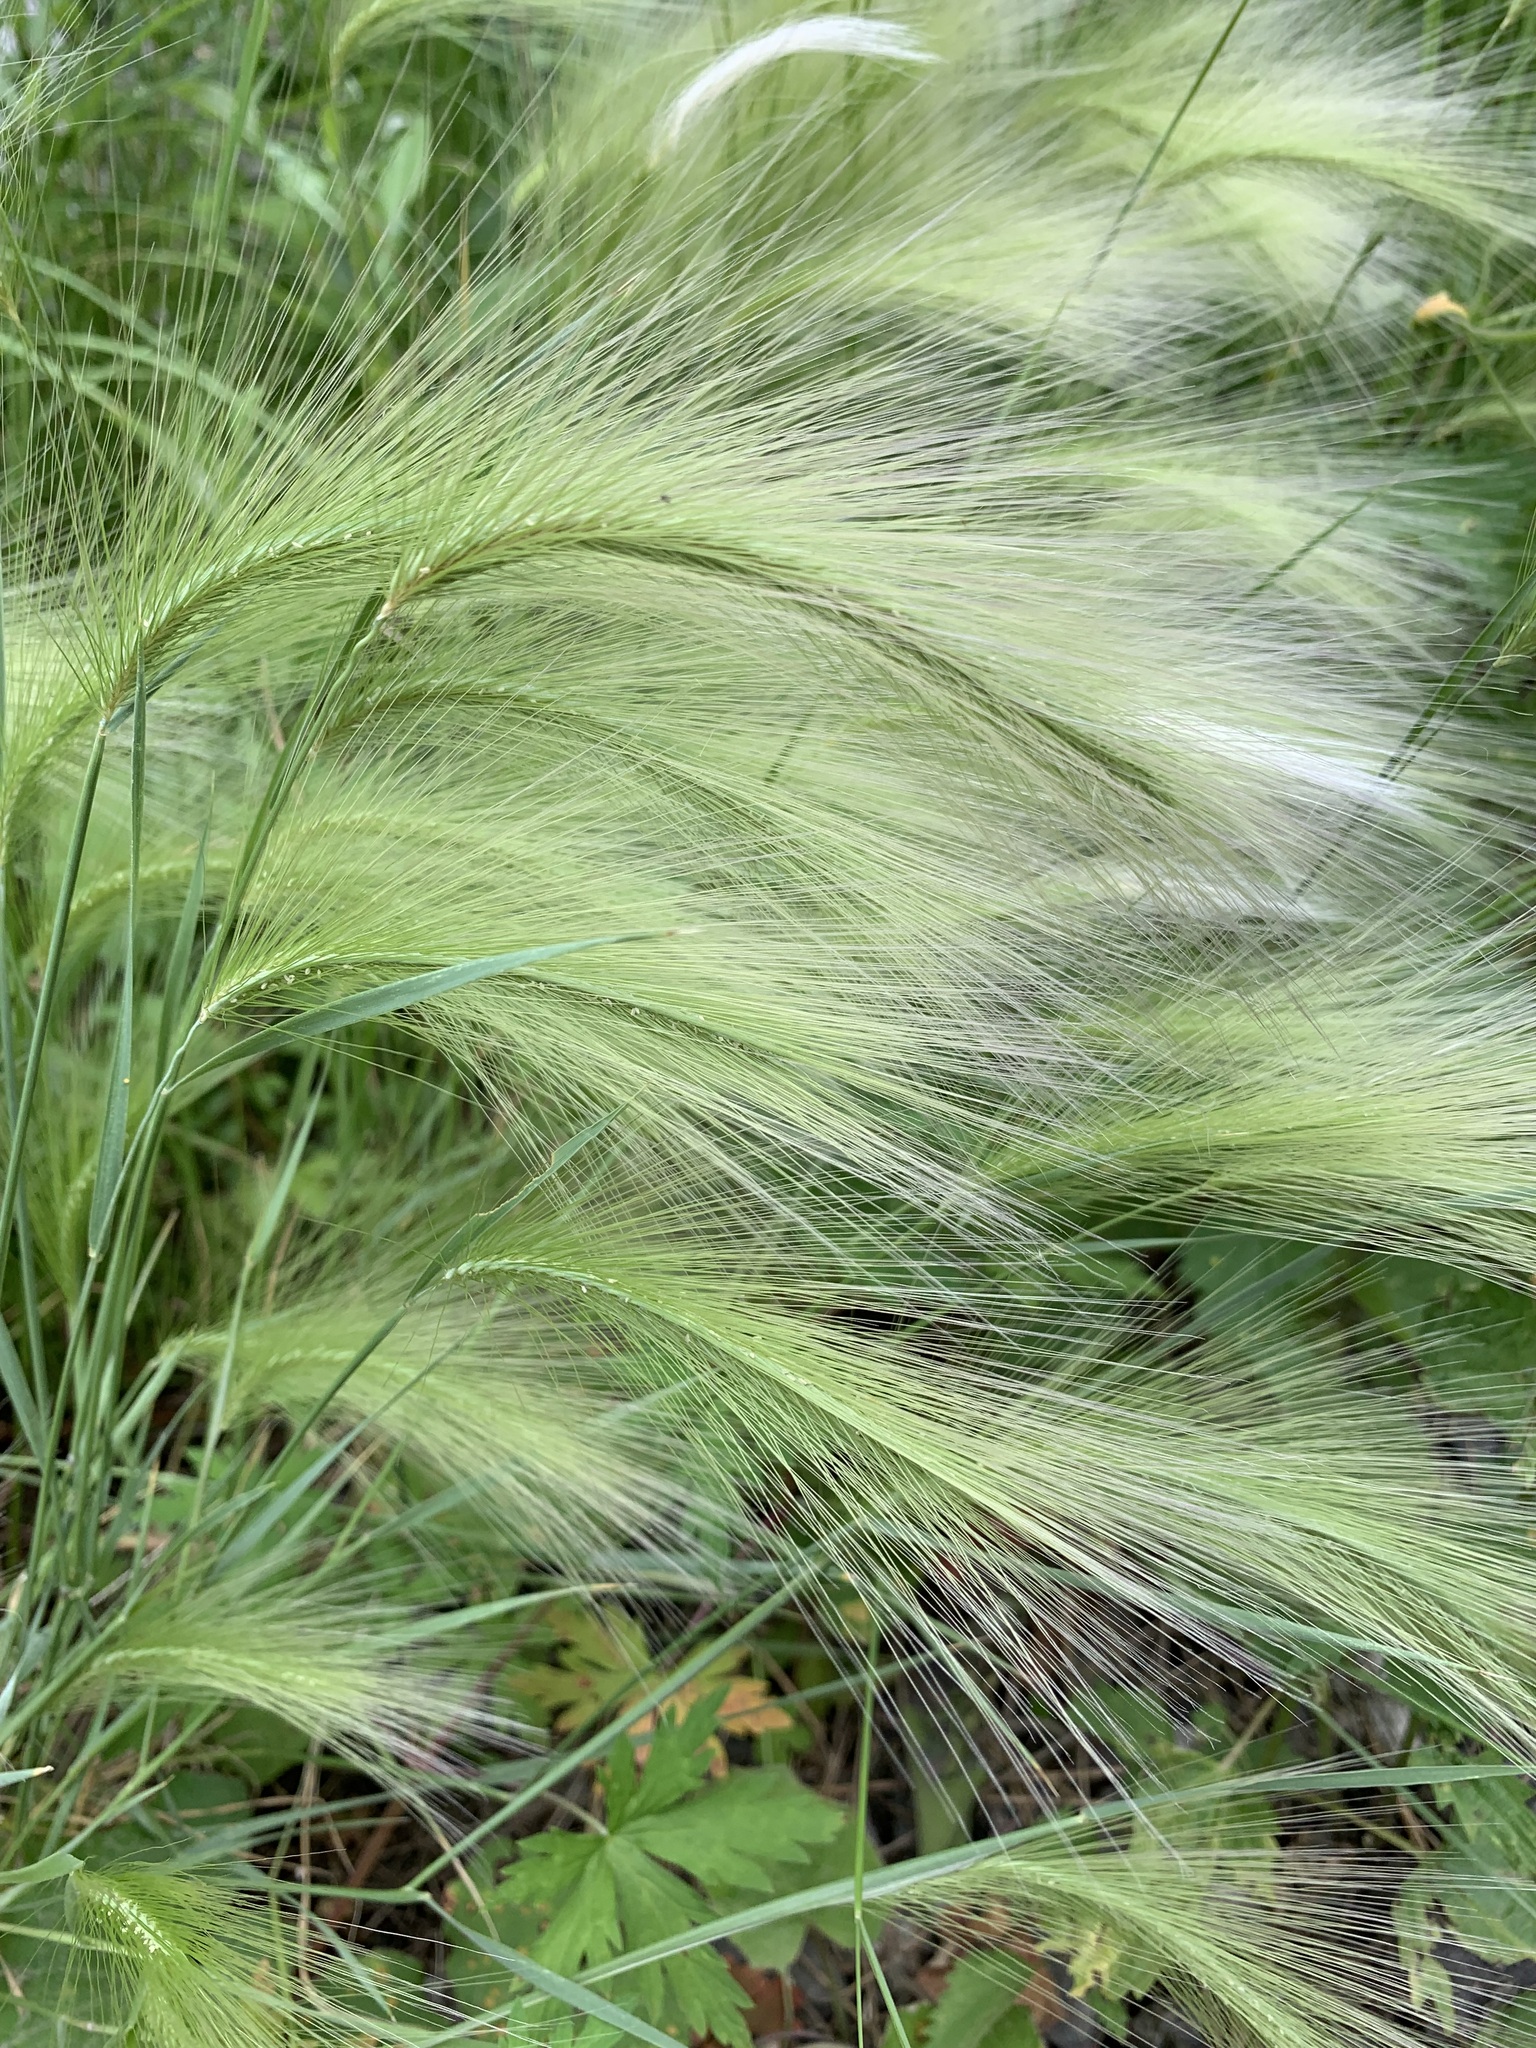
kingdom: Plantae
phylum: Tracheophyta
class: Liliopsida
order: Poales
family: Poaceae
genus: Hordeum
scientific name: Hordeum jubatum
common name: Foxtail barley
